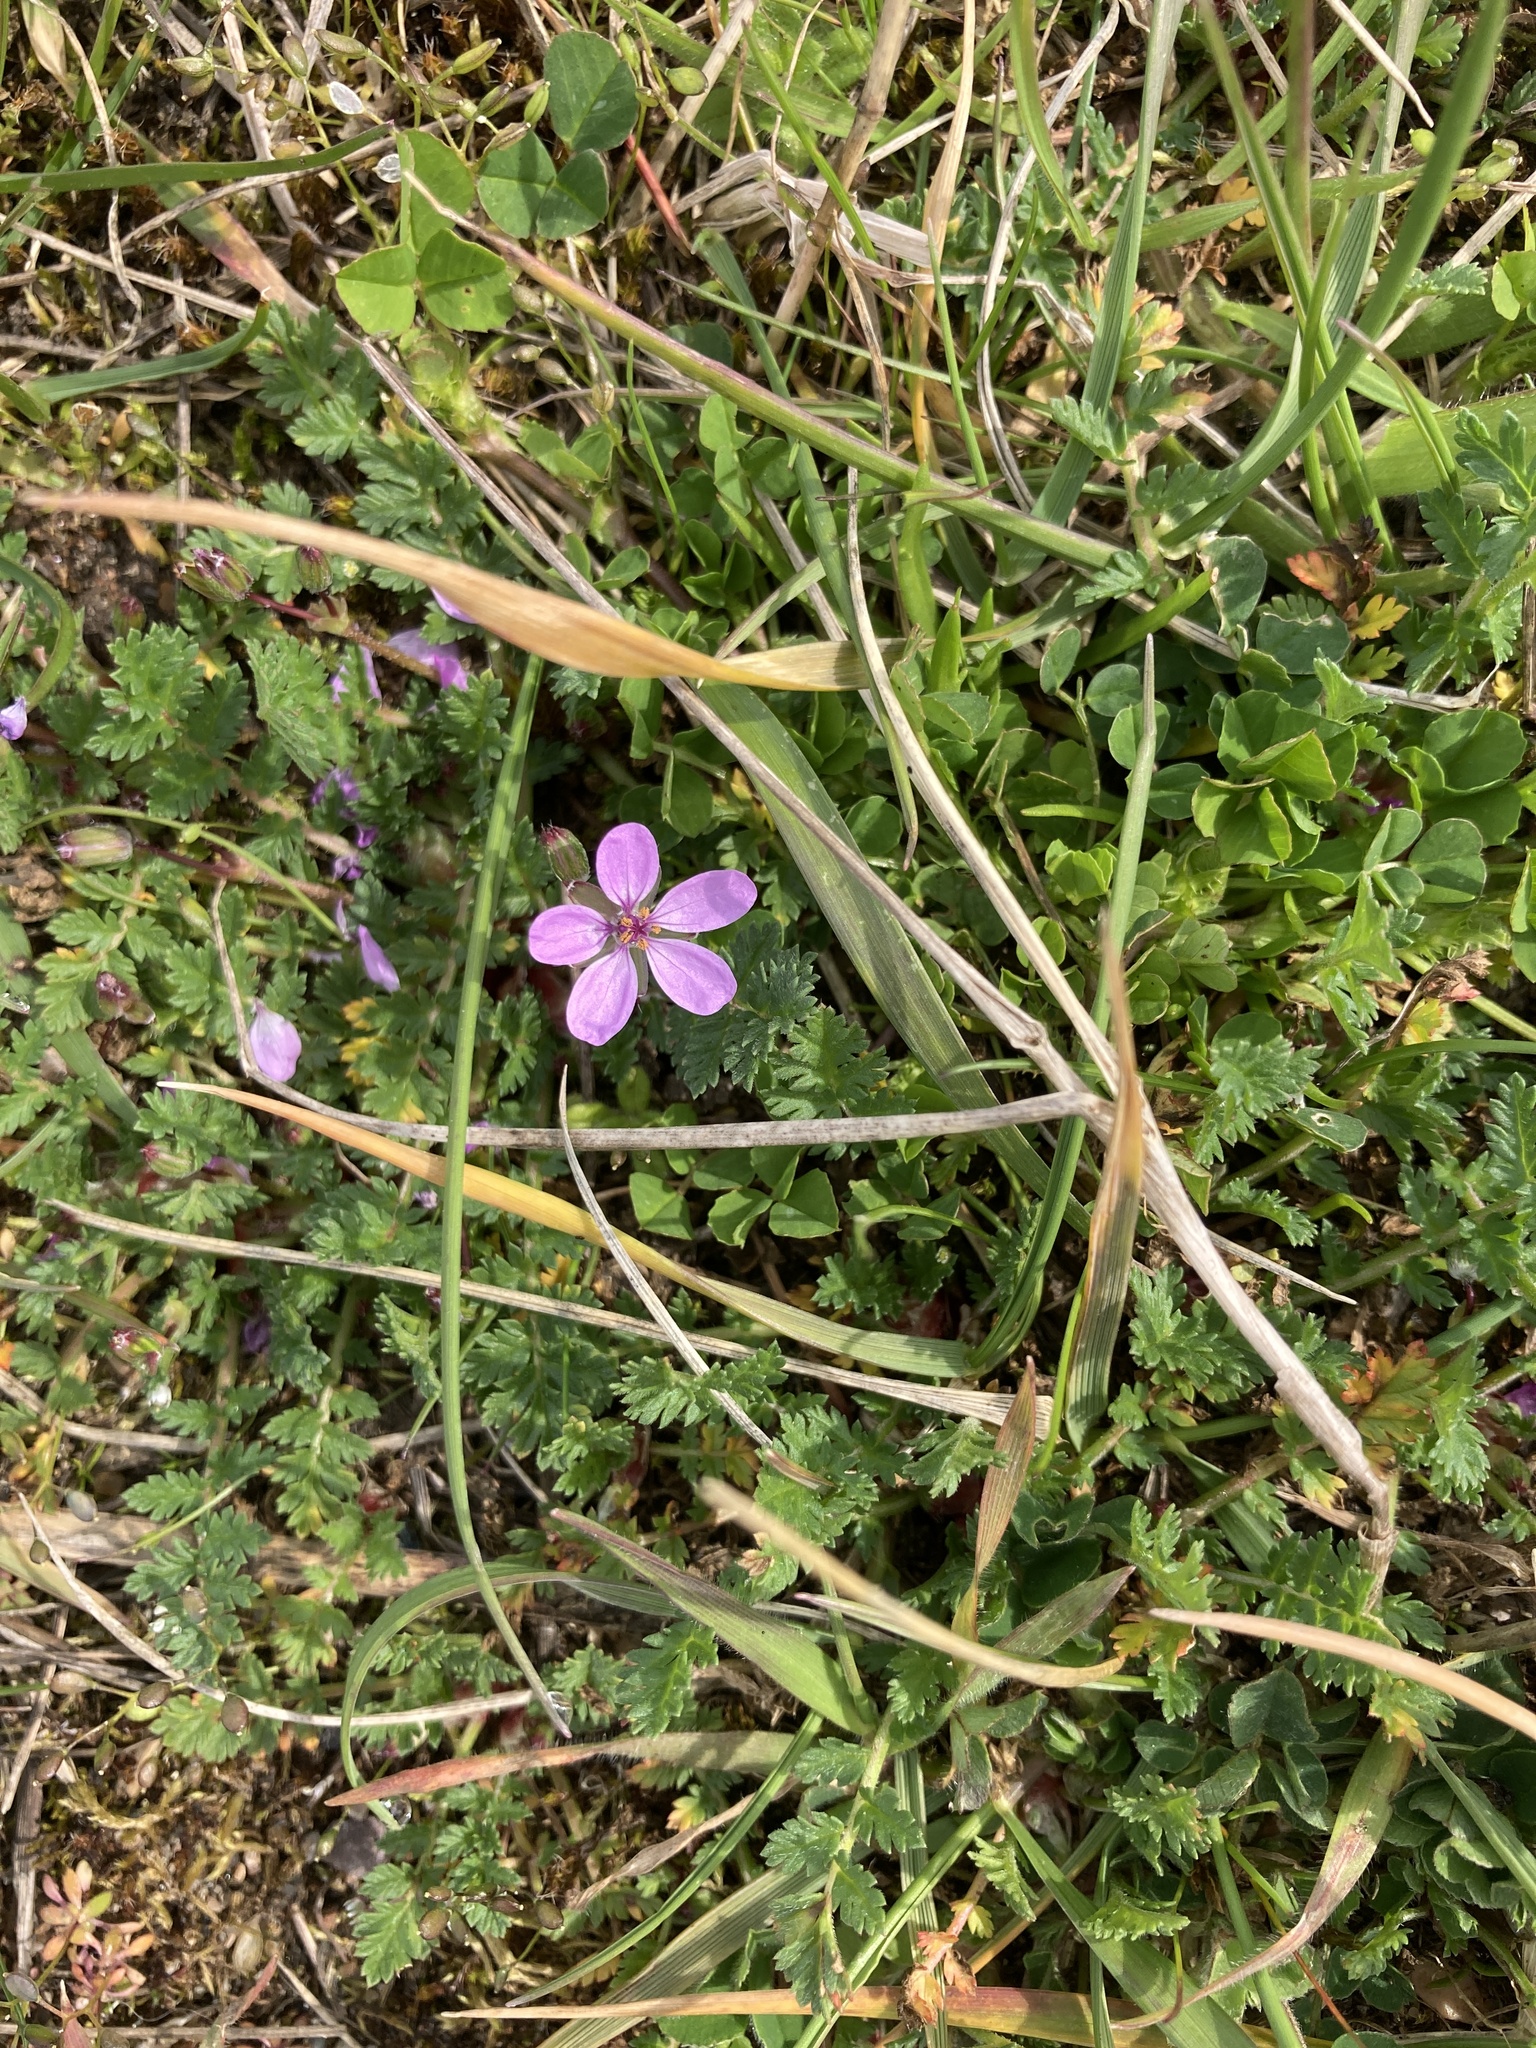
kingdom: Plantae
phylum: Tracheophyta
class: Magnoliopsida
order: Geraniales
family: Geraniaceae
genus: Erodium
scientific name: Erodium cicutarium
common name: Common stork's-bill
